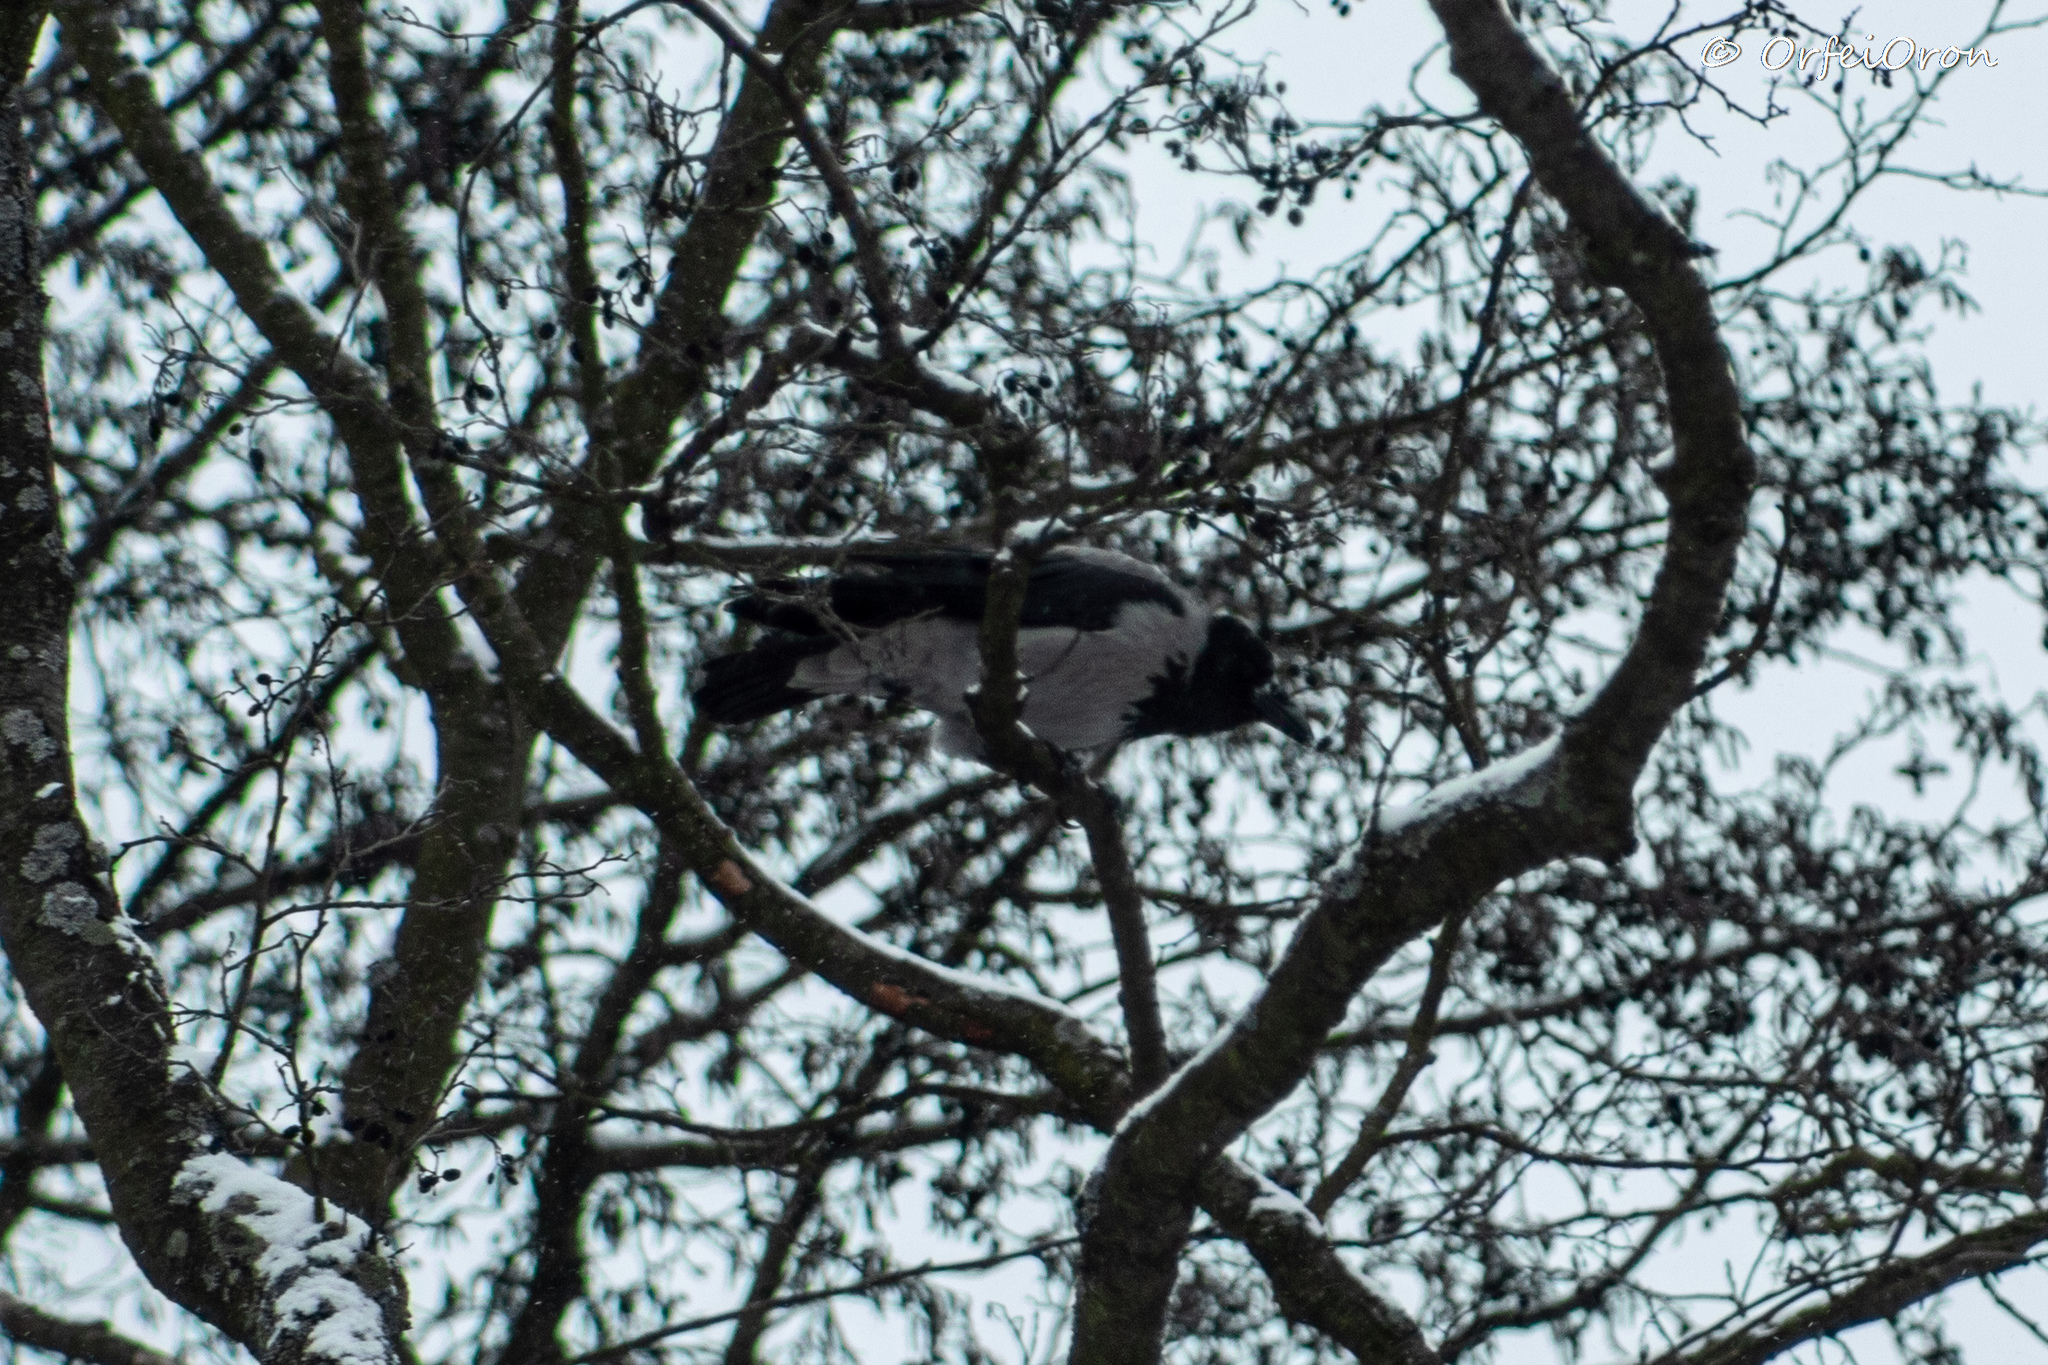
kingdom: Animalia
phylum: Chordata
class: Aves
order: Passeriformes
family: Corvidae
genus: Corvus
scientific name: Corvus cornix
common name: Hooded crow
